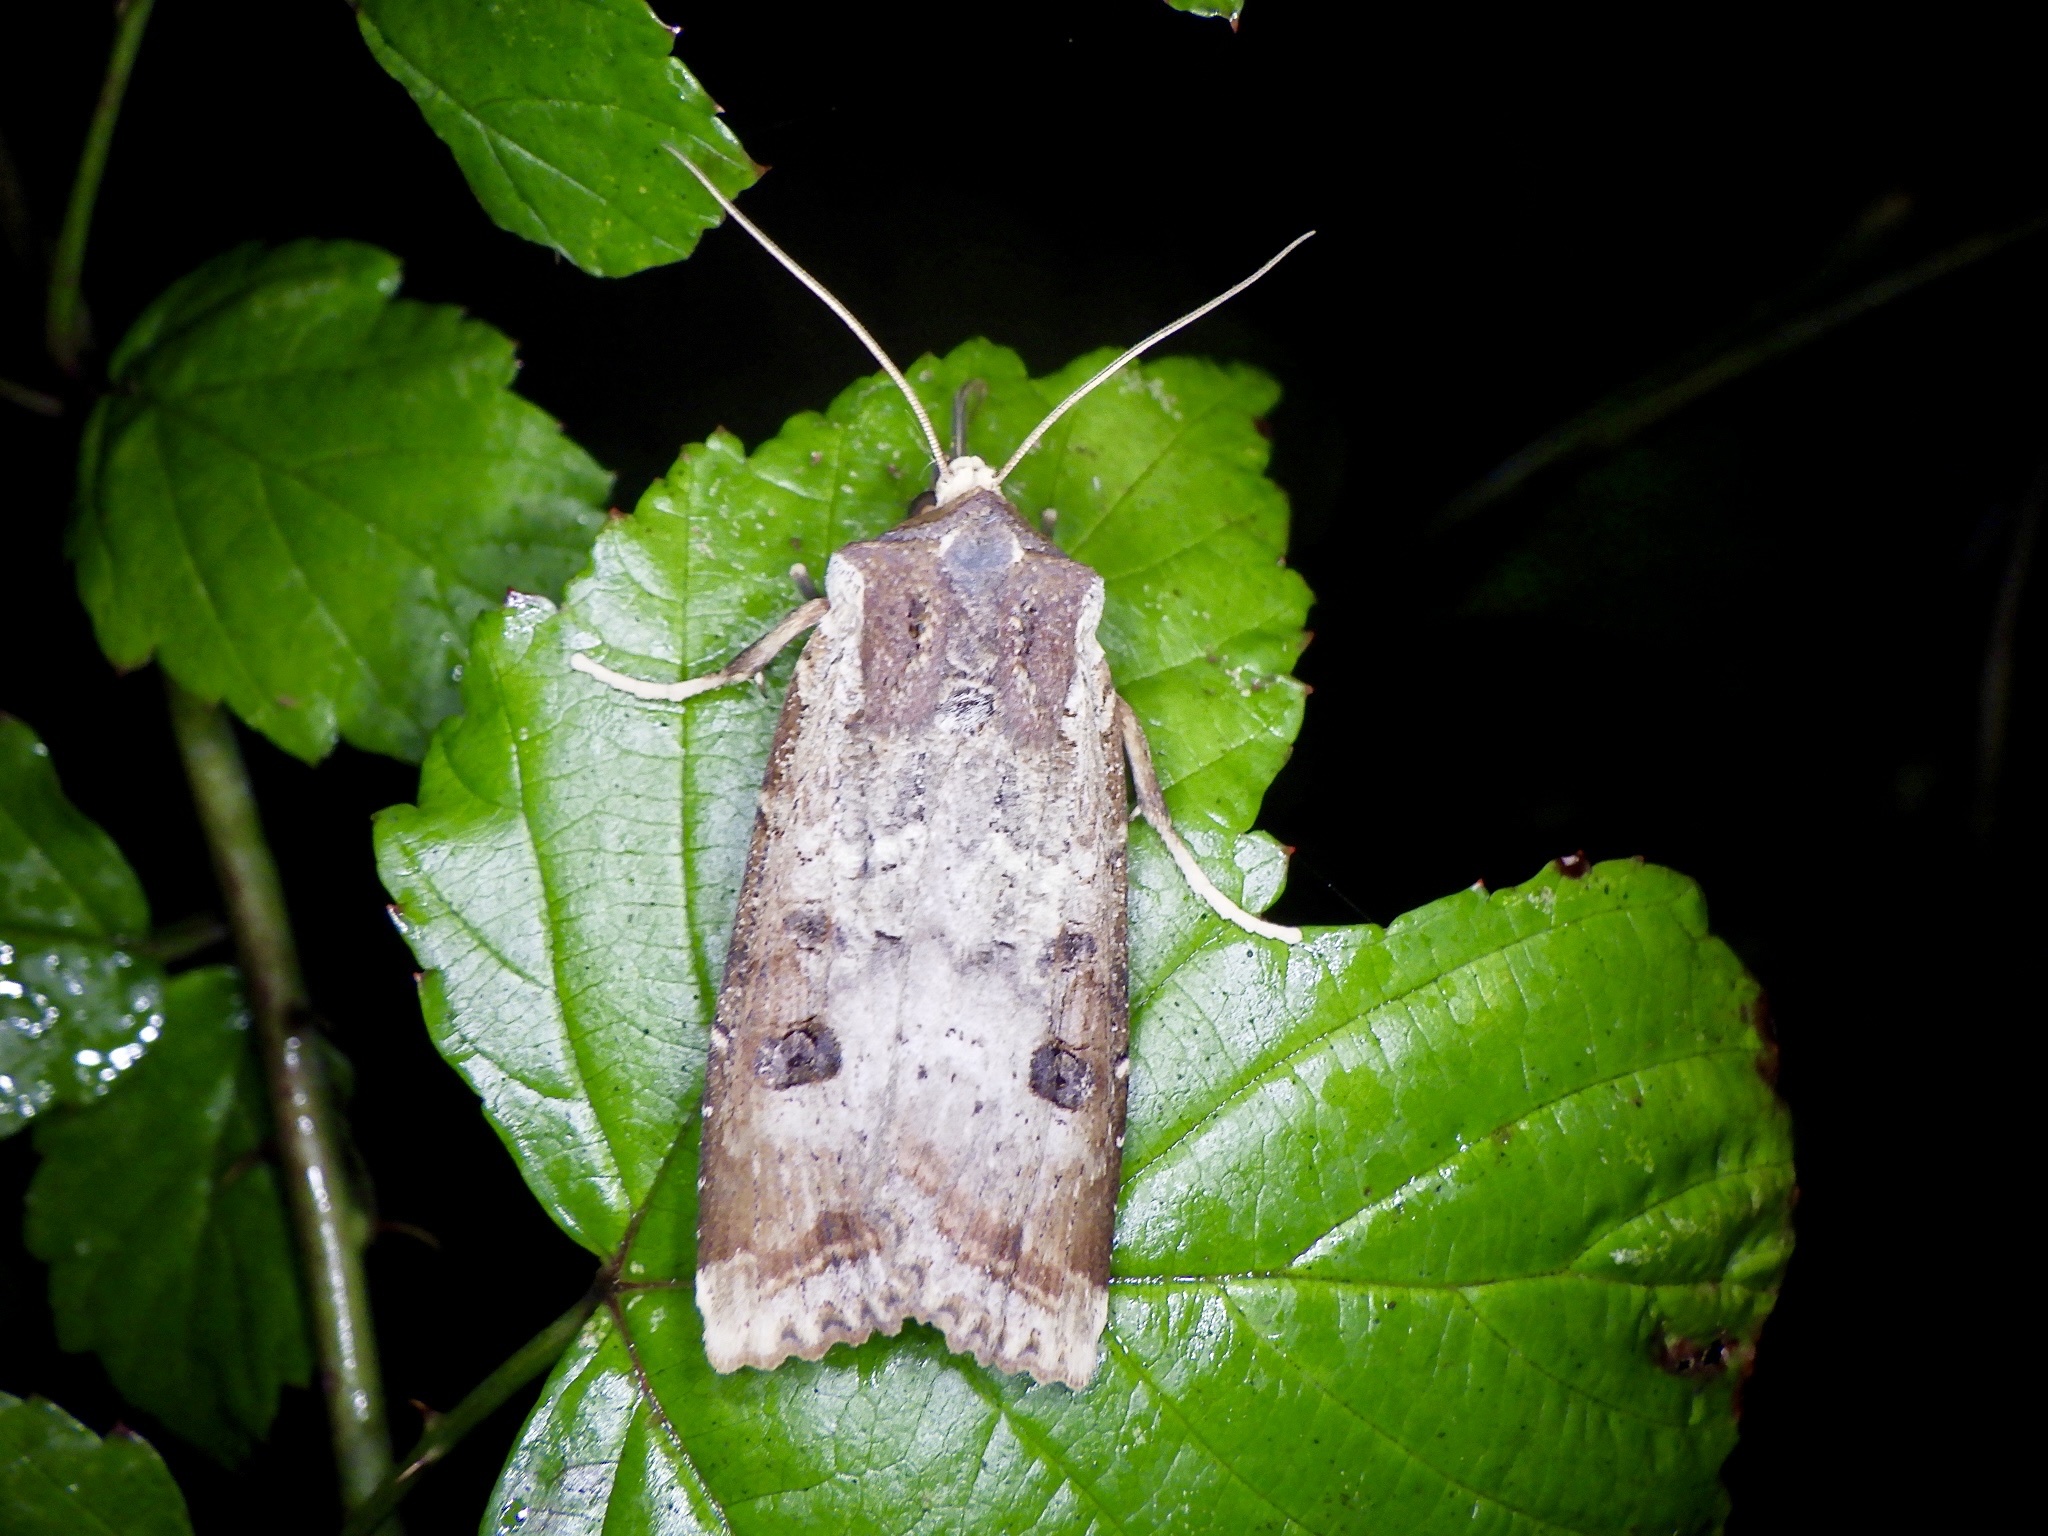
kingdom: Animalia
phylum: Arthropoda
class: Insecta
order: Lepidoptera
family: Noctuidae
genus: Xylena
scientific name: Xylena formosa
